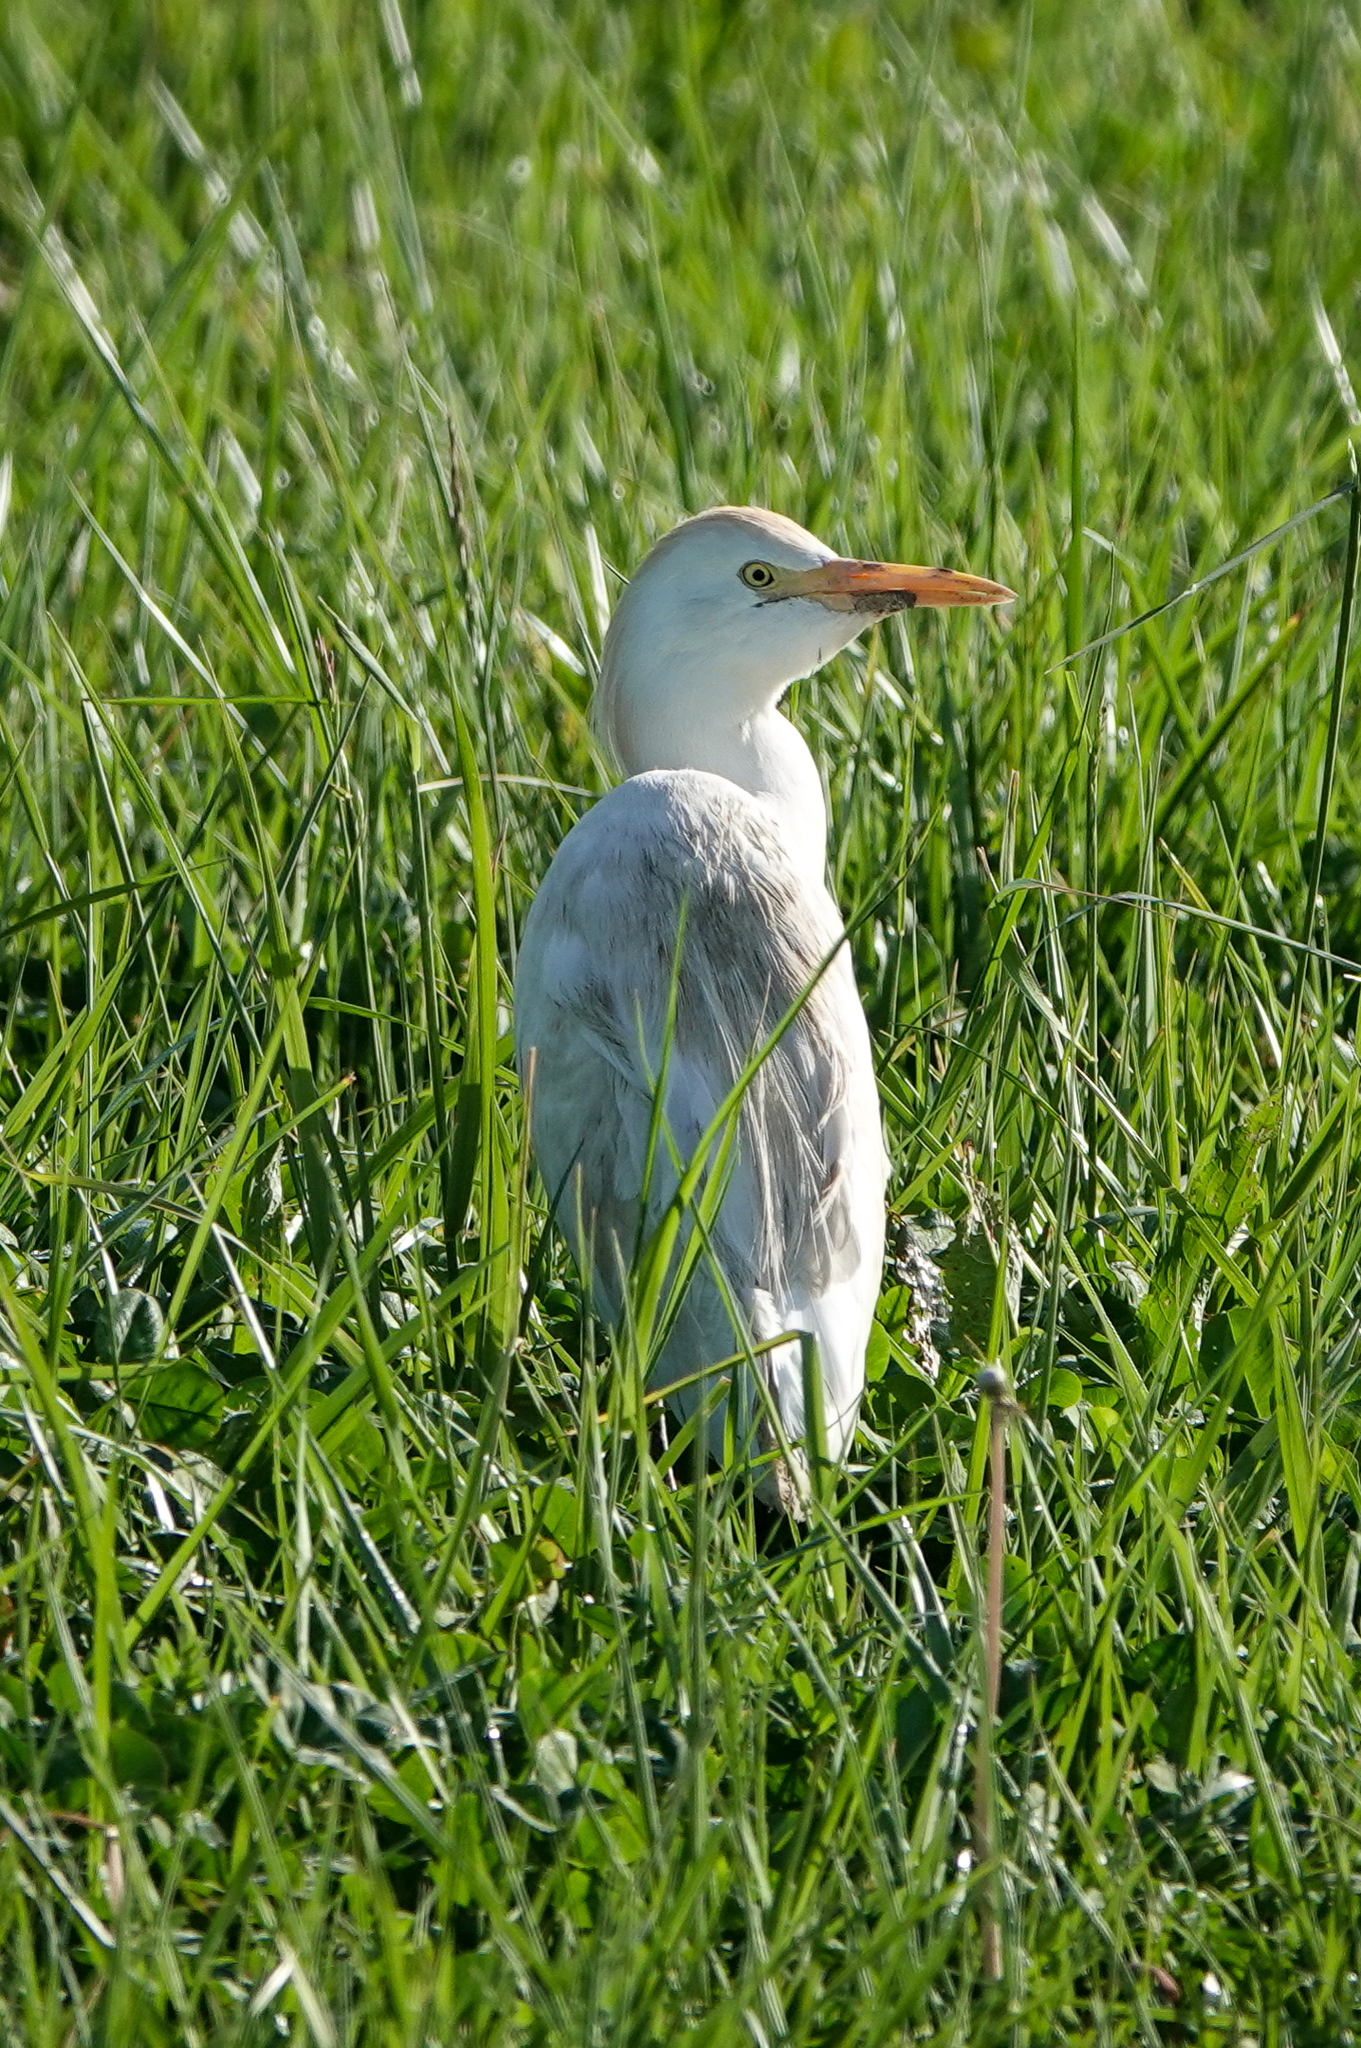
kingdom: Animalia
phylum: Chordata
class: Aves
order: Pelecaniformes
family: Ardeidae
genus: Bubulcus
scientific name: Bubulcus ibis
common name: Cattle egret
